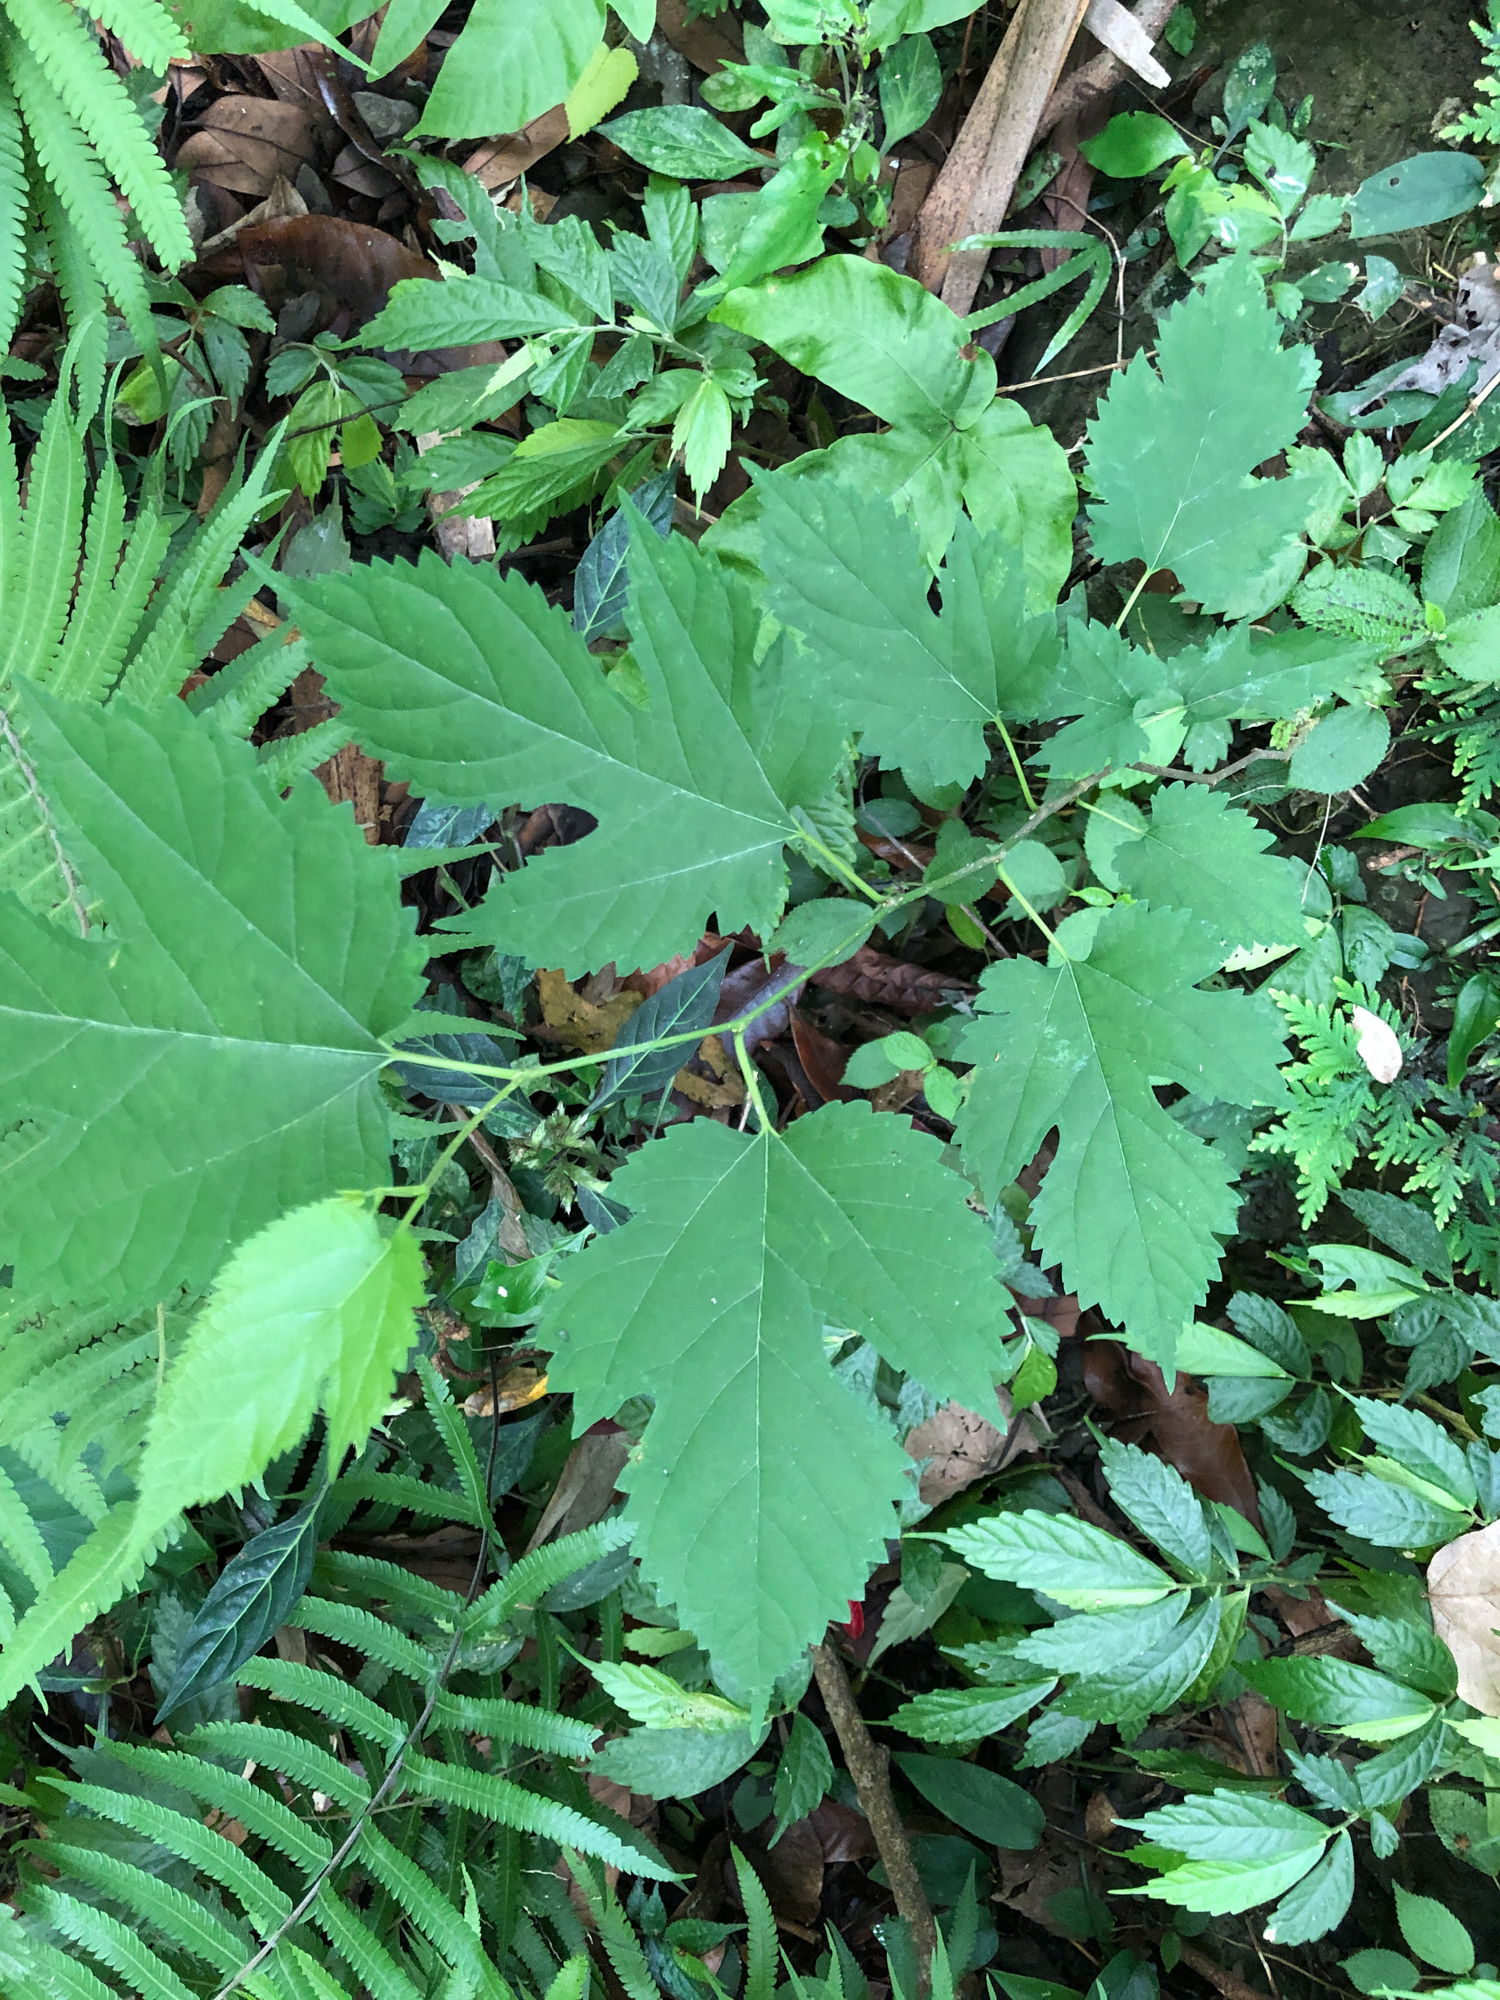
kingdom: Plantae
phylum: Tracheophyta
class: Magnoliopsida
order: Rosales
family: Moraceae
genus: Morus
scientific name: Morus indica
